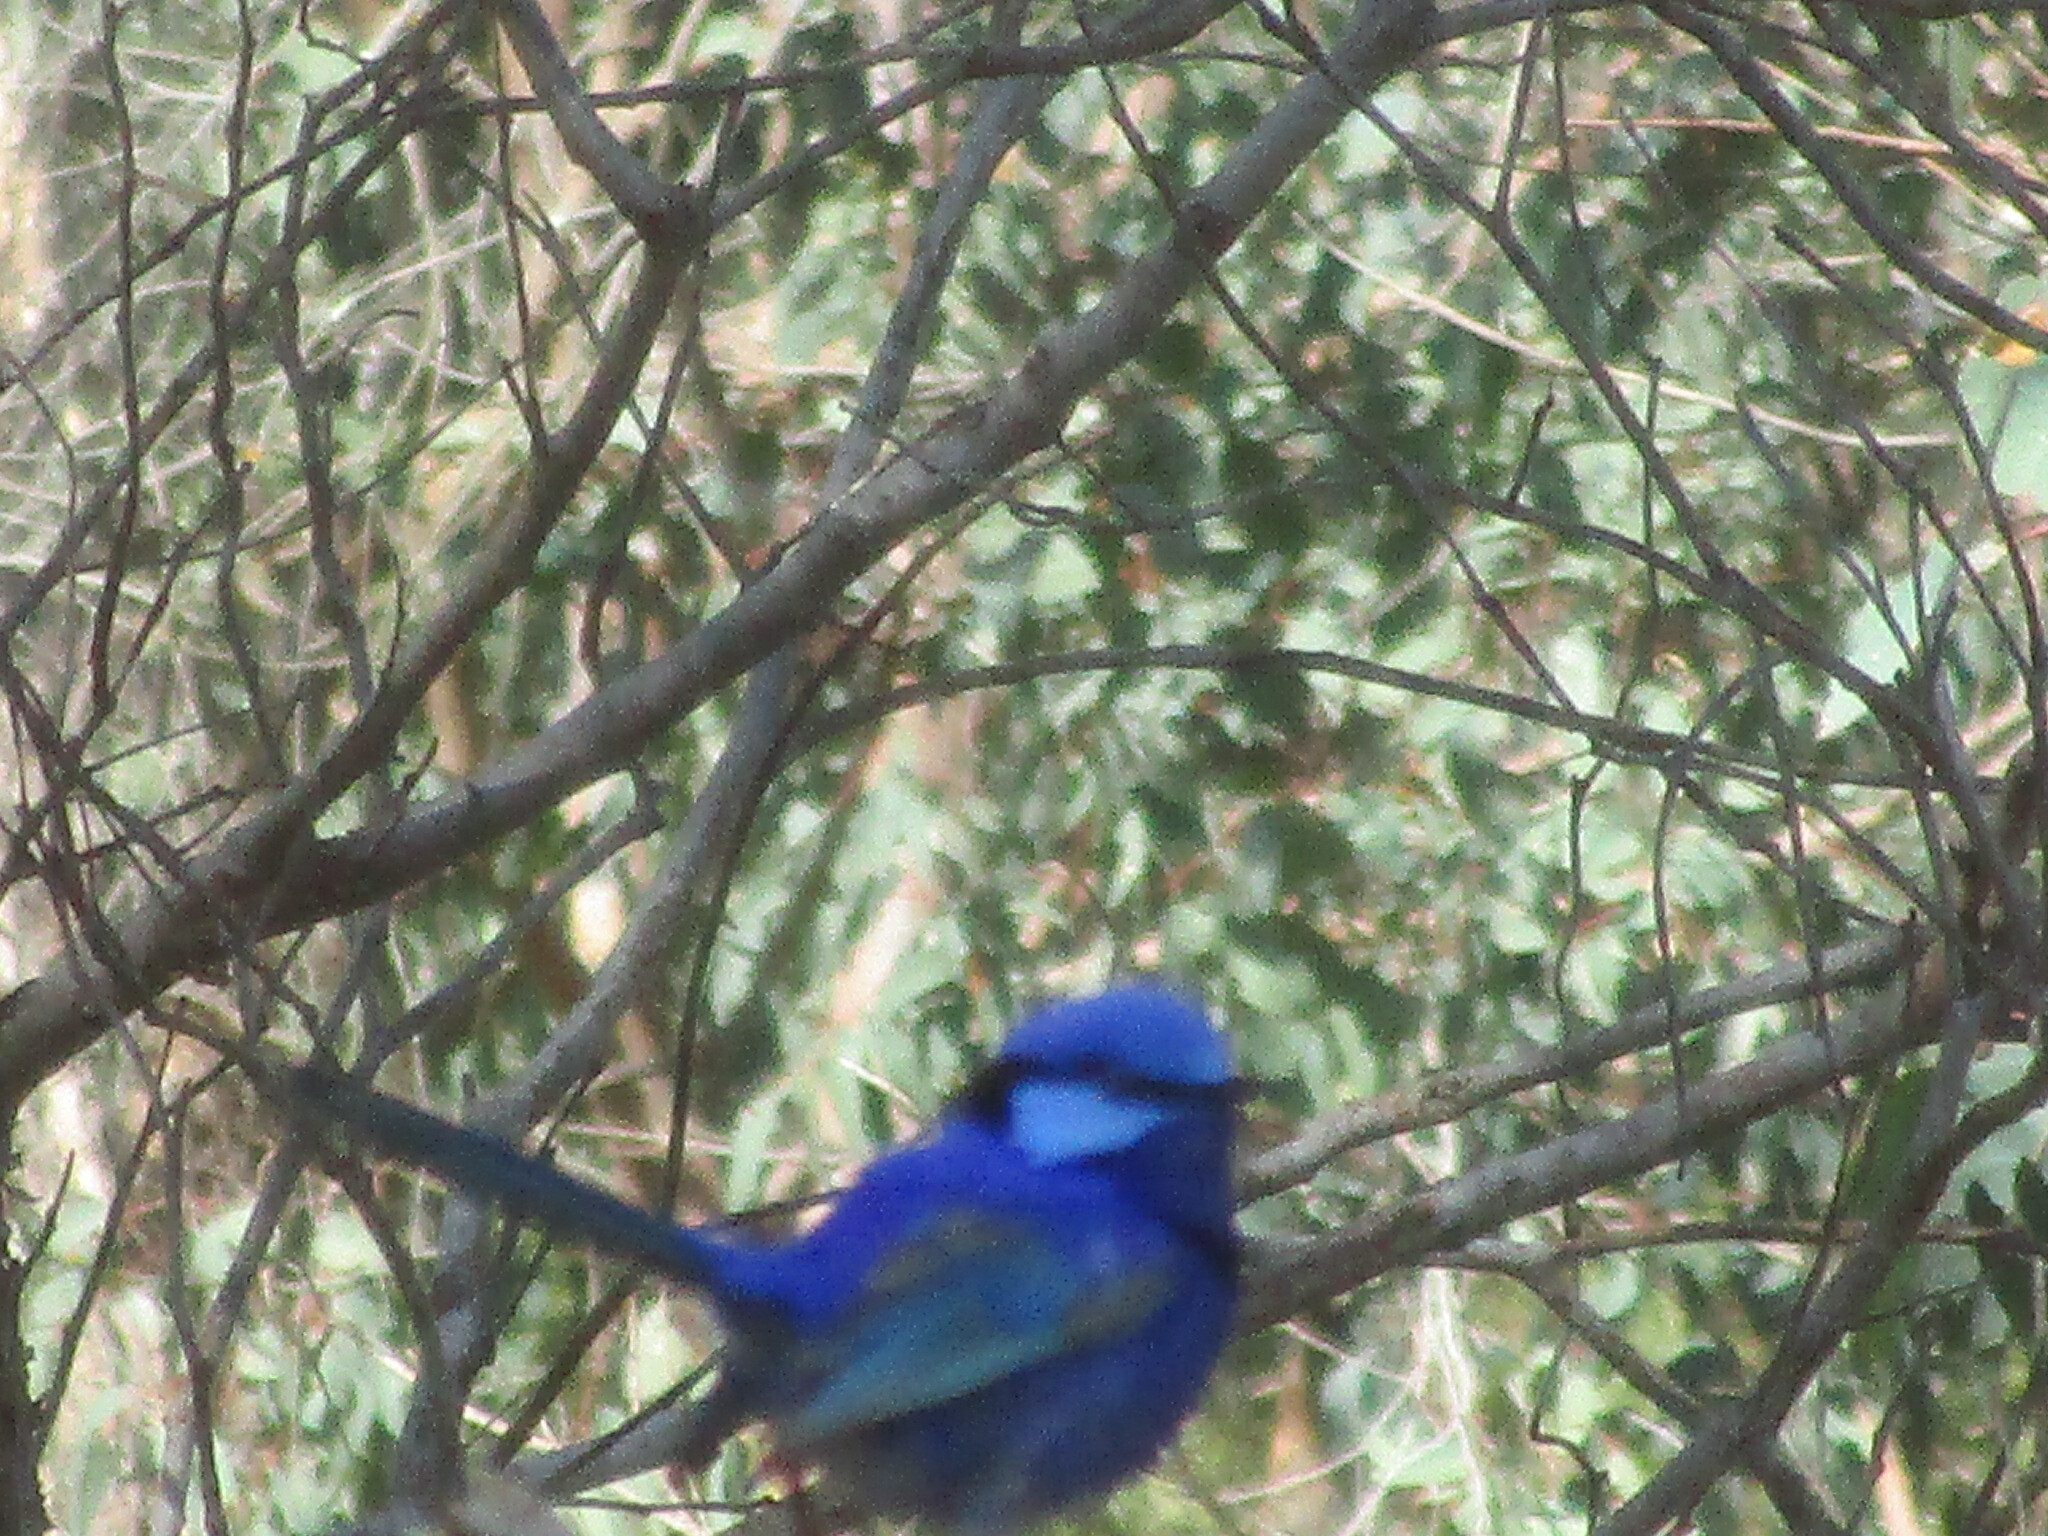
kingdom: Animalia
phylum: Chordata
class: Aves
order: Passeriformes
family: Maluridae
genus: Malurus
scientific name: Malurus splendens
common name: Splendid fairywren
